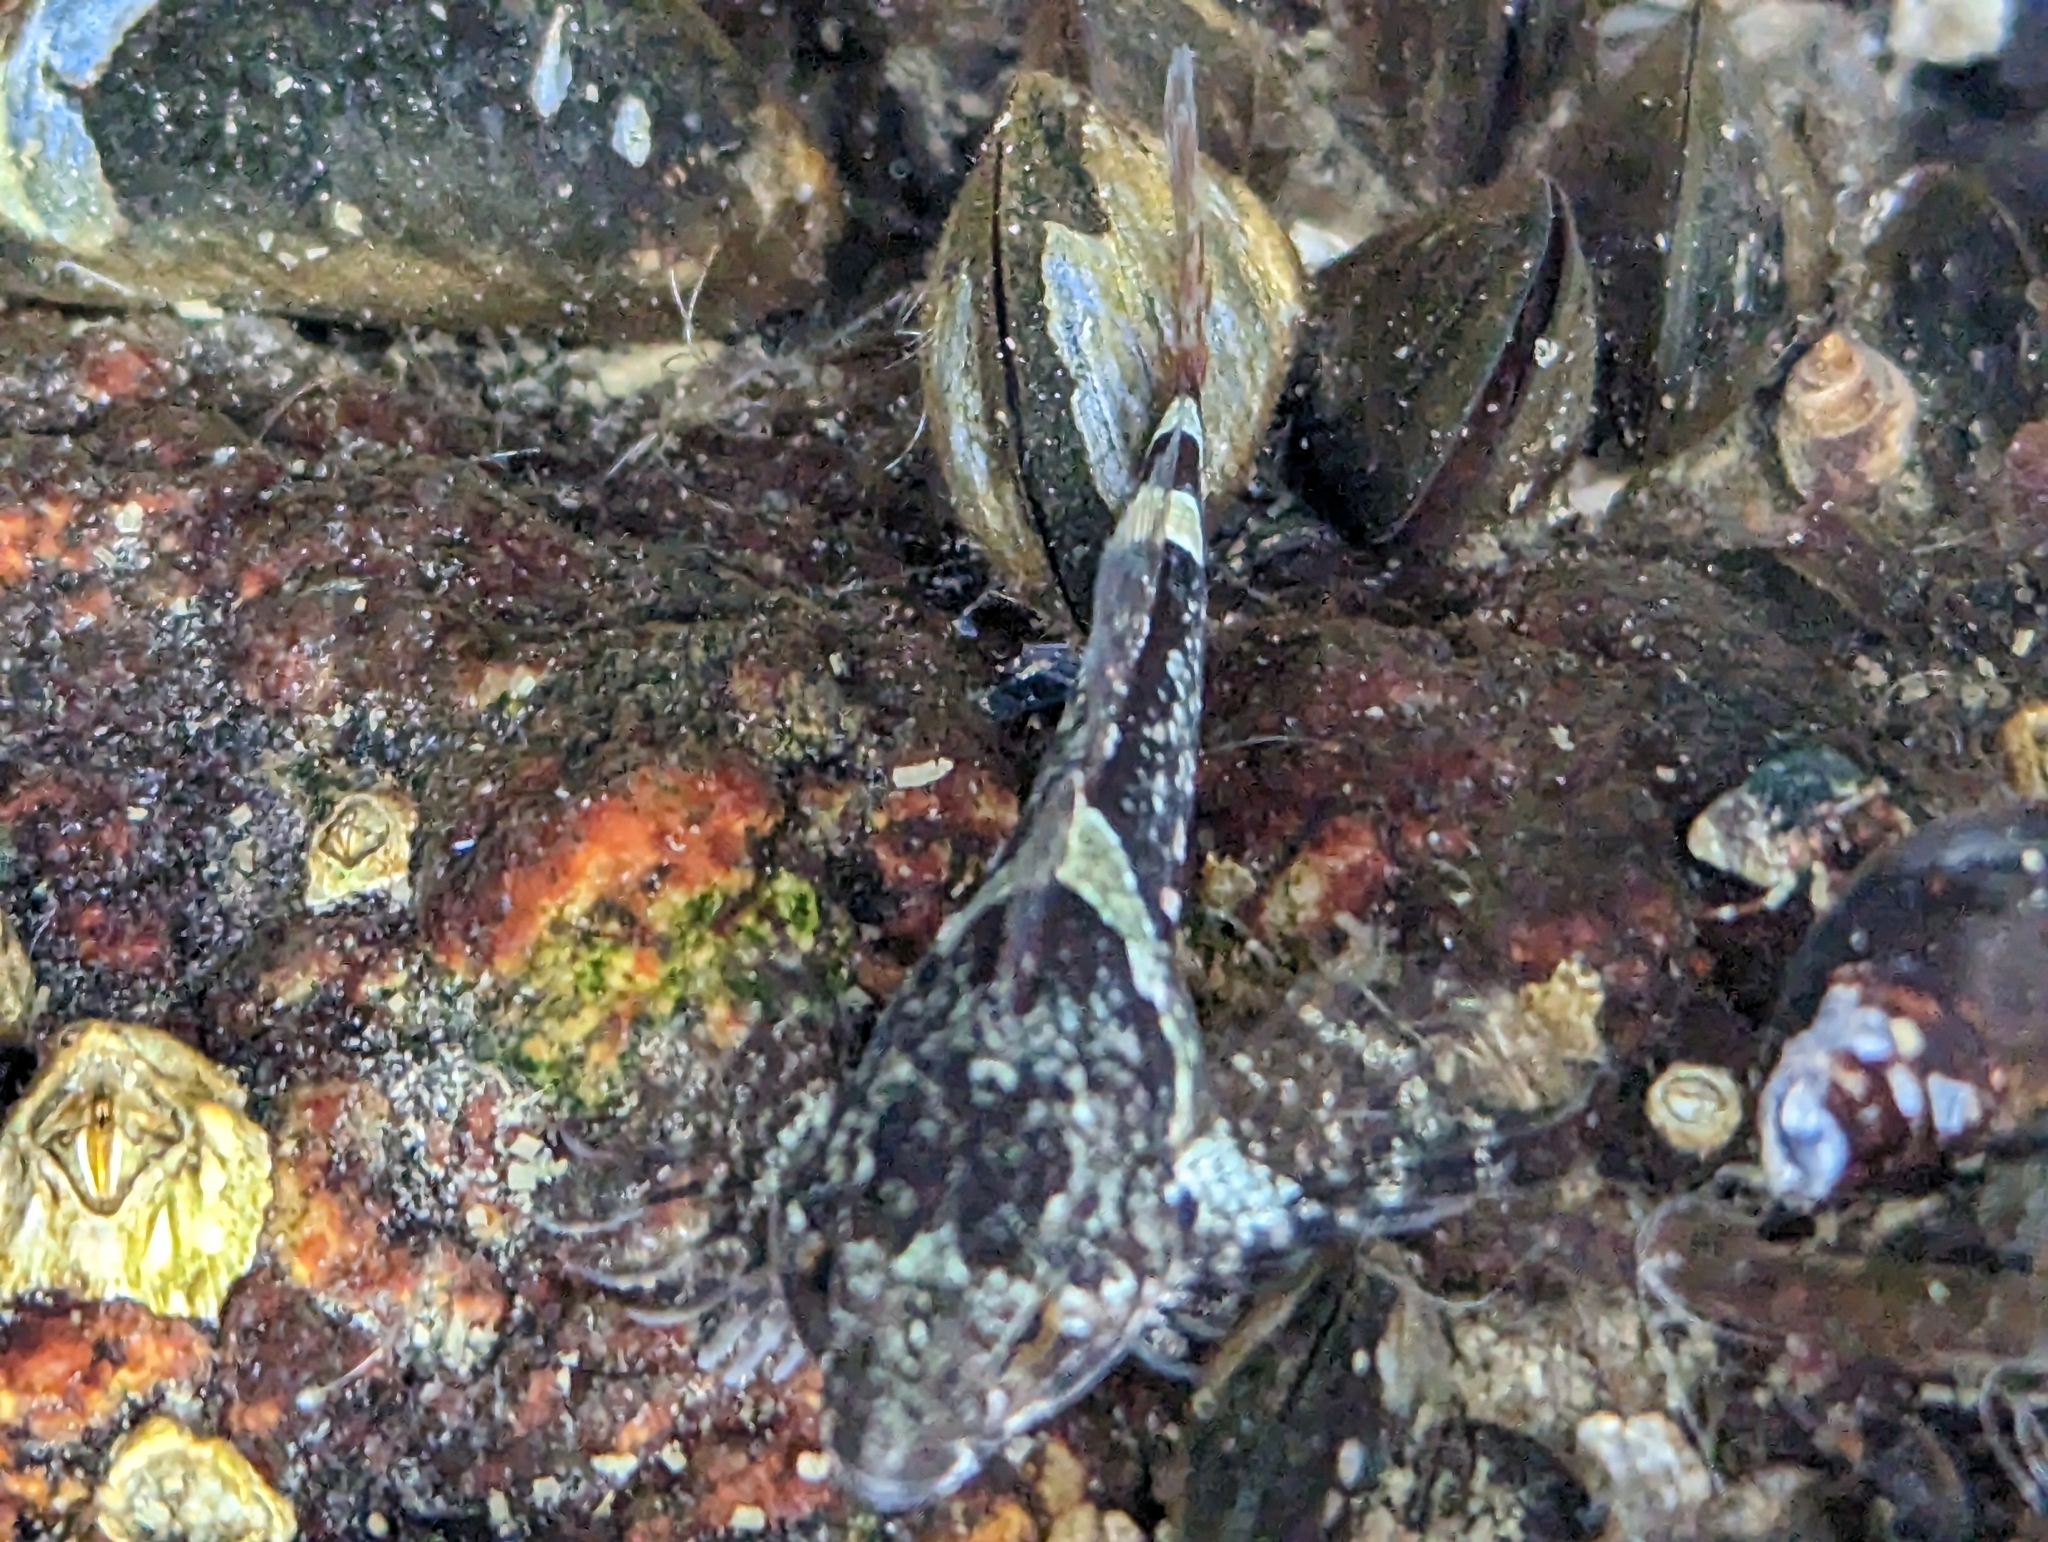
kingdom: Animalia
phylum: Chordata
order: Scorpaeniformes
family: Cottidae
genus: Oligocottus
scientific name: Oligocottus maculosus
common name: Tidepool sculpin
